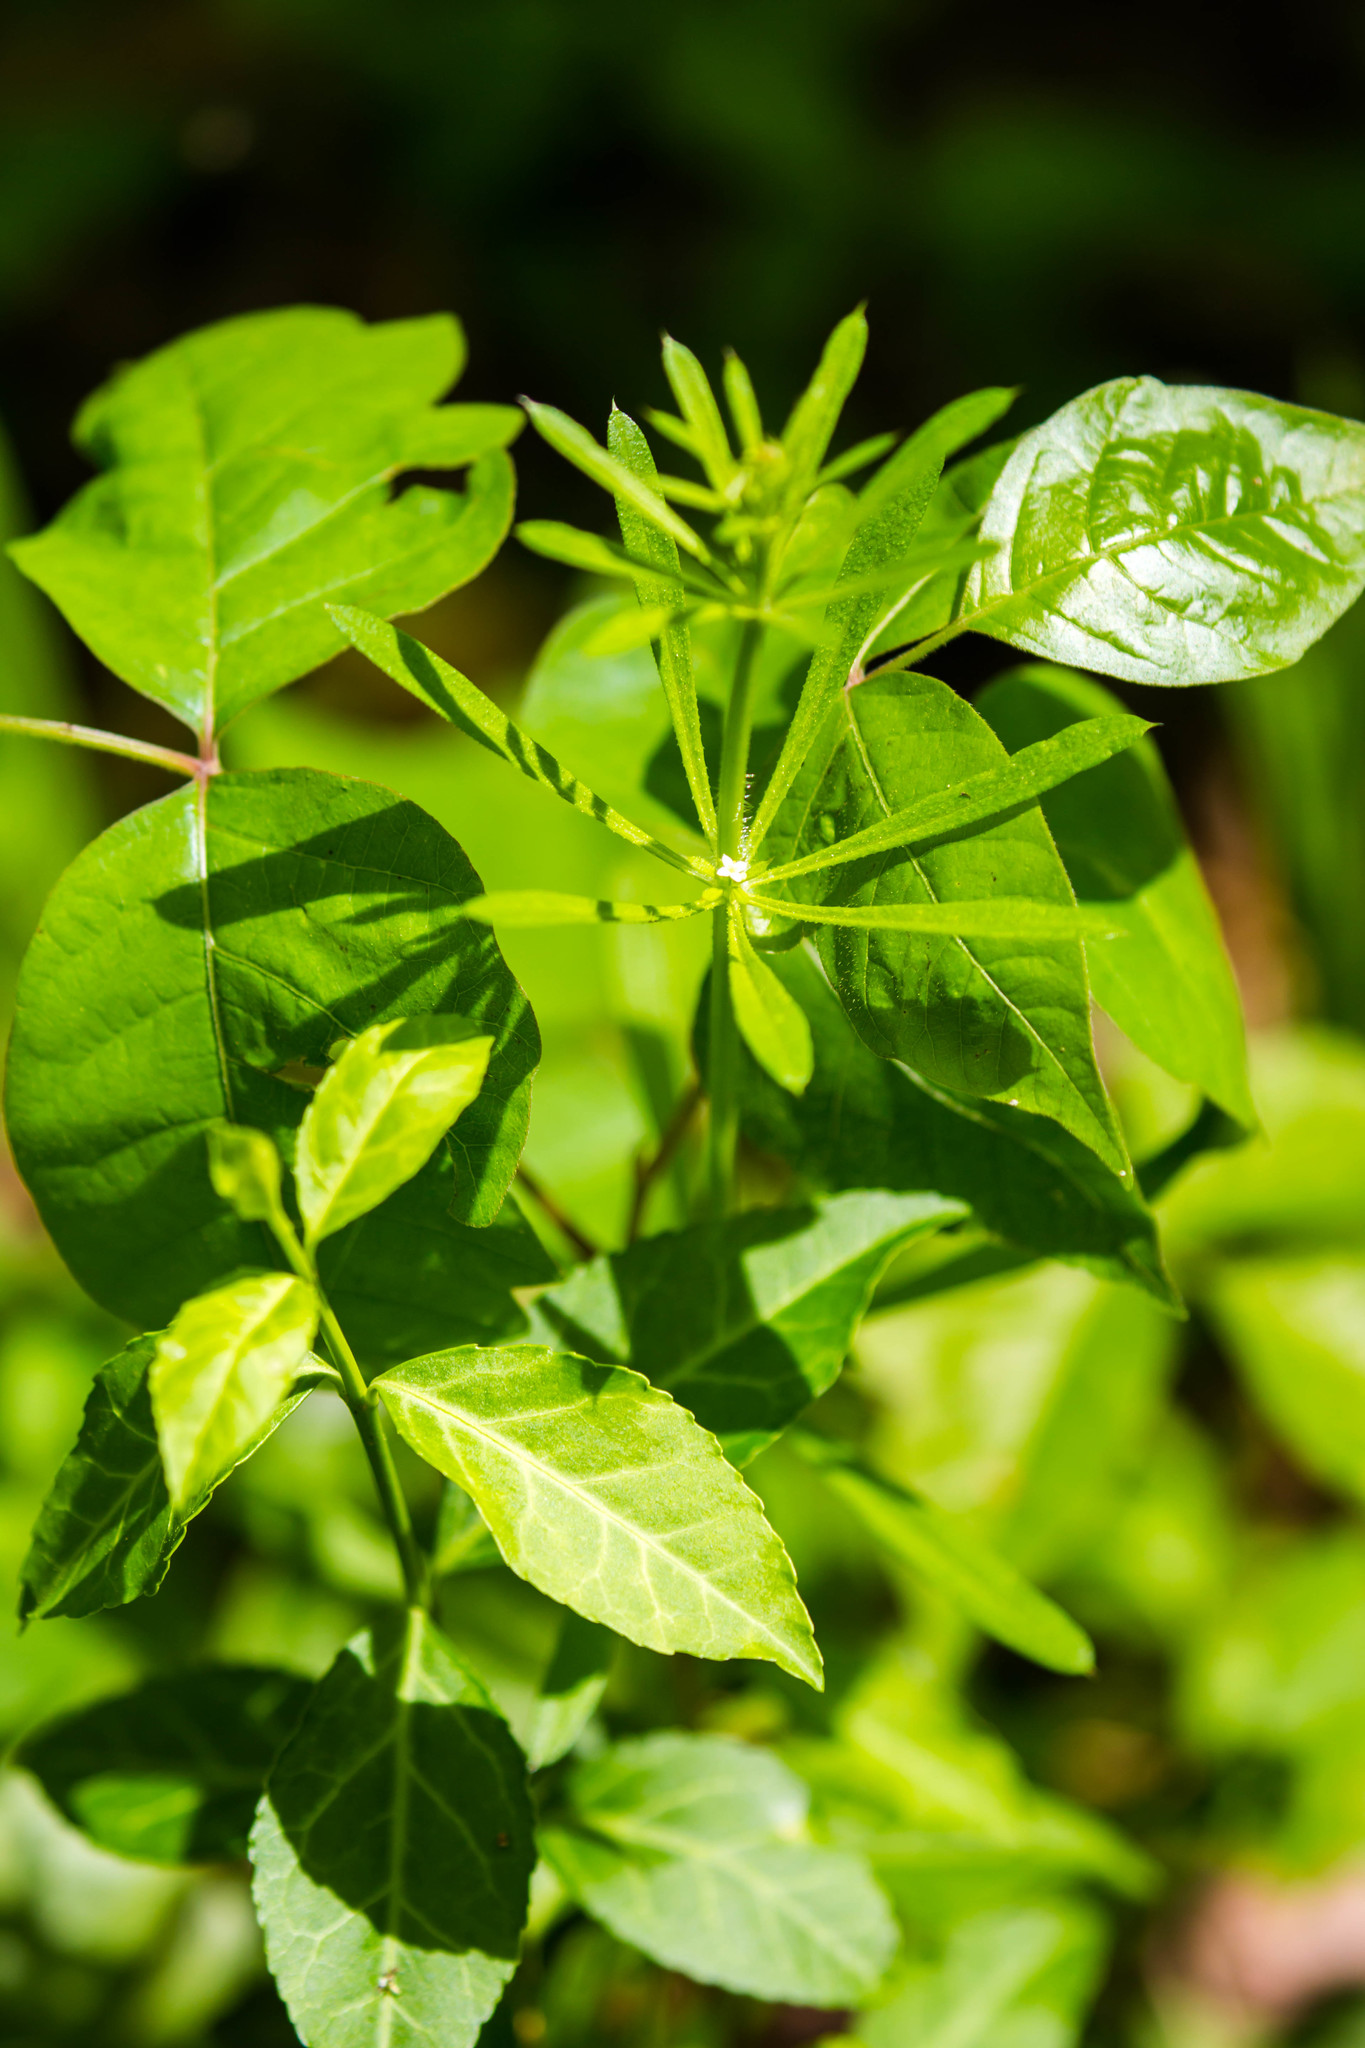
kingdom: Plantae
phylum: Tracheophyta
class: Magnoliopsida
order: Gentianales
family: Rubiaceae
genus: Galium
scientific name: Galium aparine
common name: Cleavers
